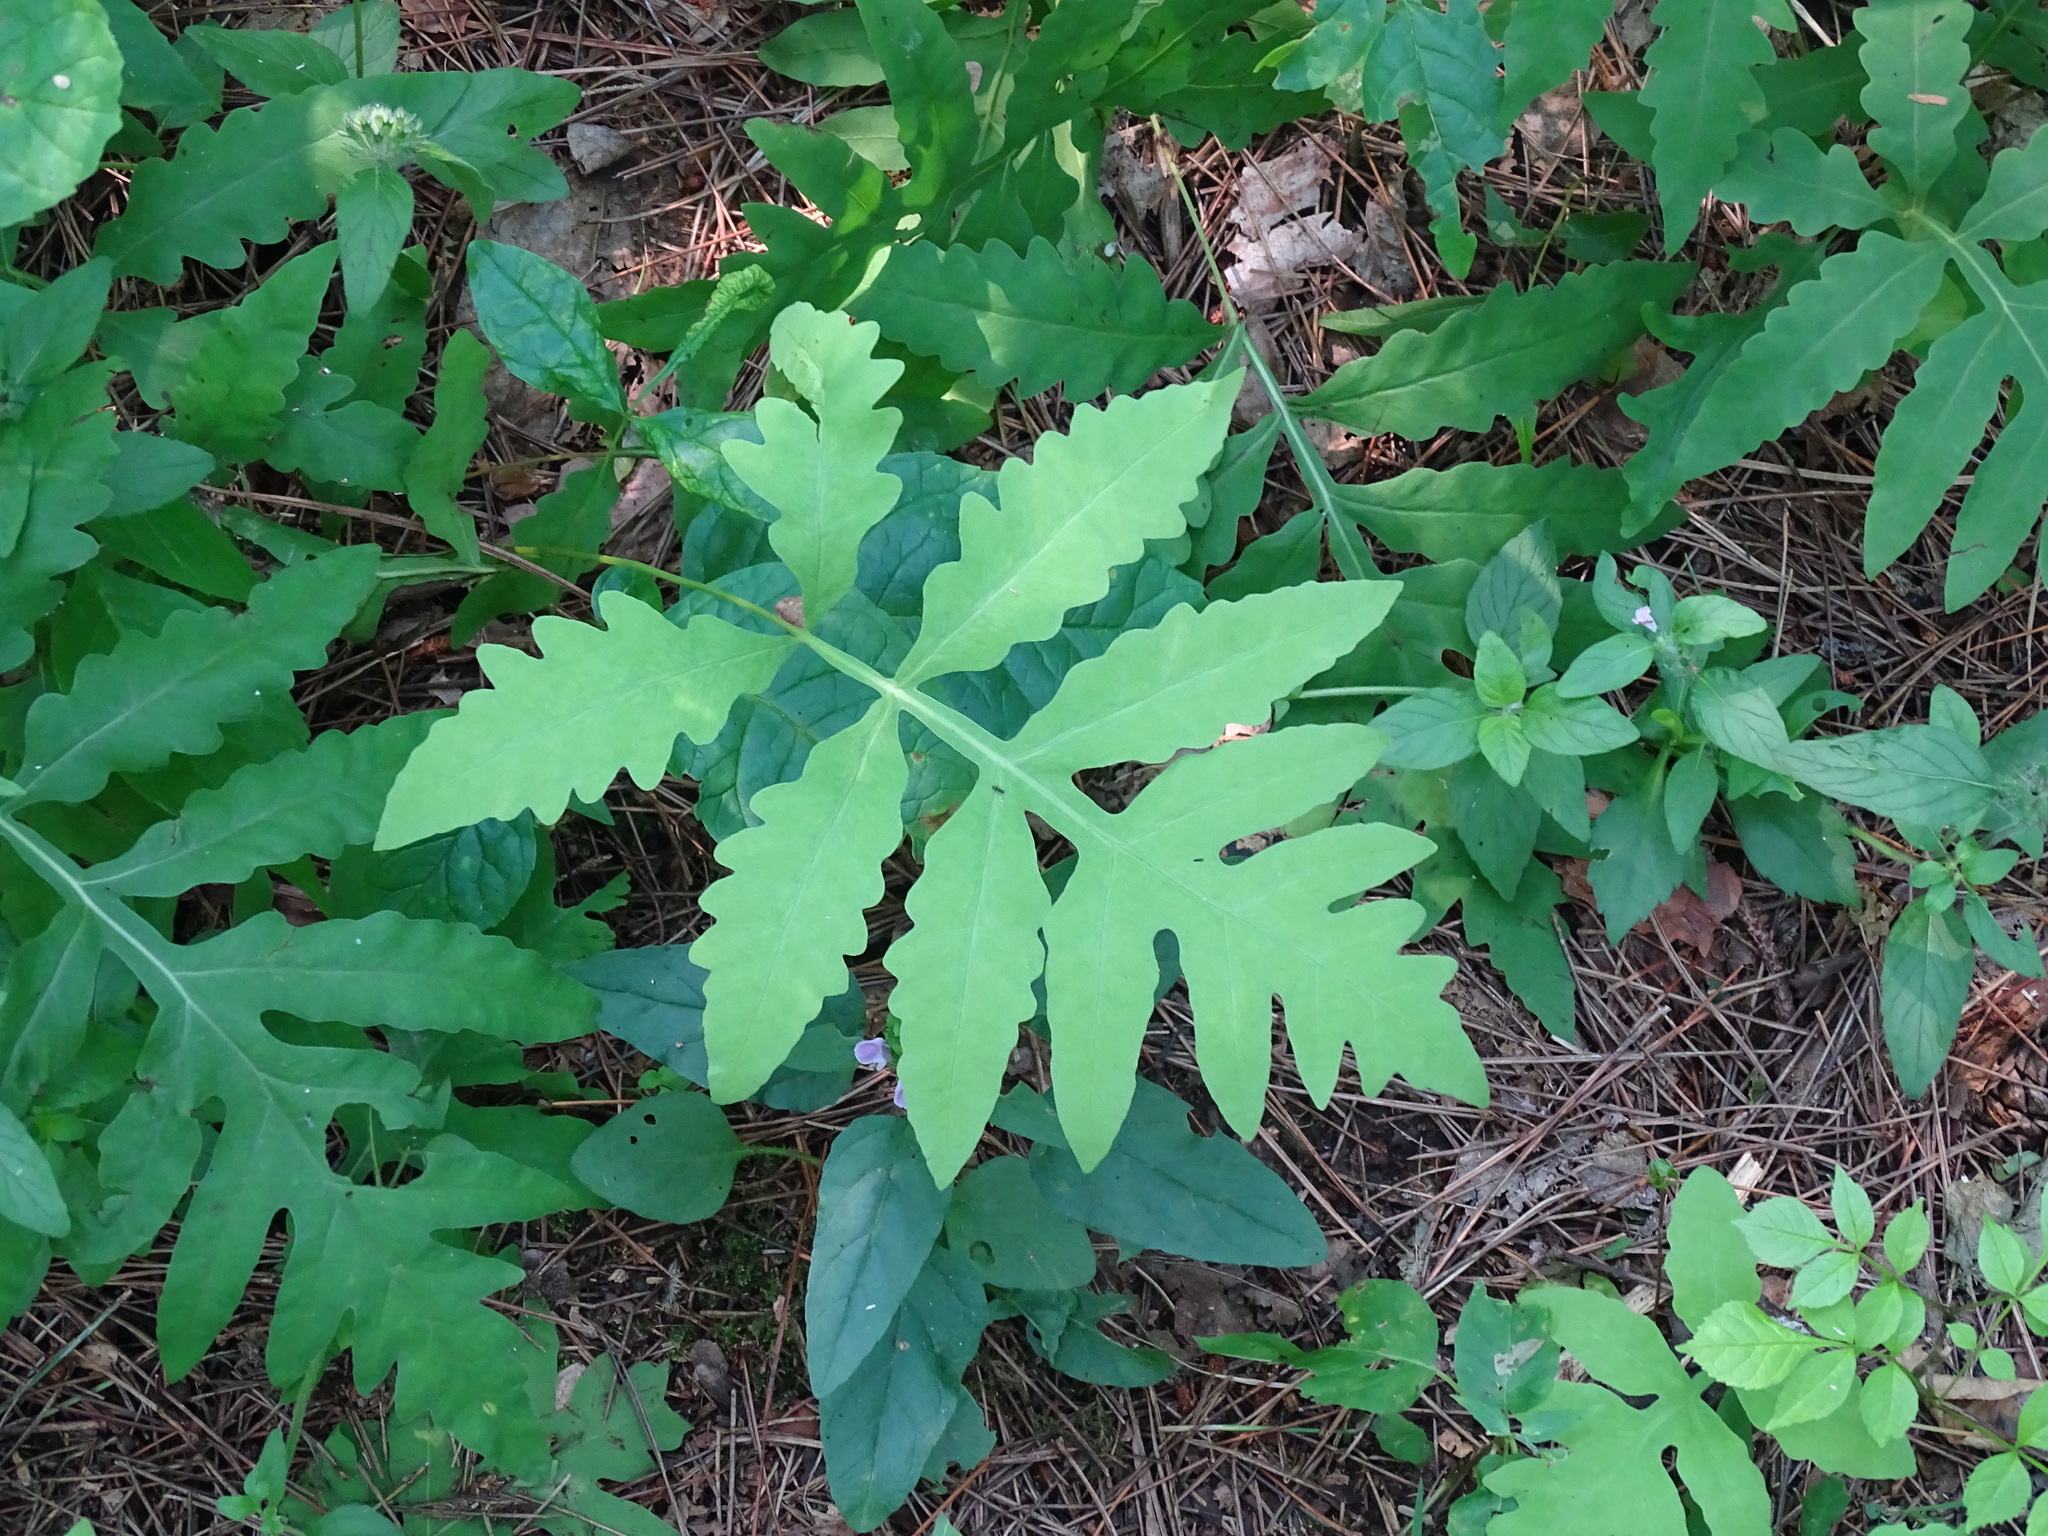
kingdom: Plantae
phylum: Tracheophyta
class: Polypodiopsida
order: Polypodiales
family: Onocleaceae
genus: Onoclea
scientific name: Onoclea sensibilis
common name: Sensitive fern
